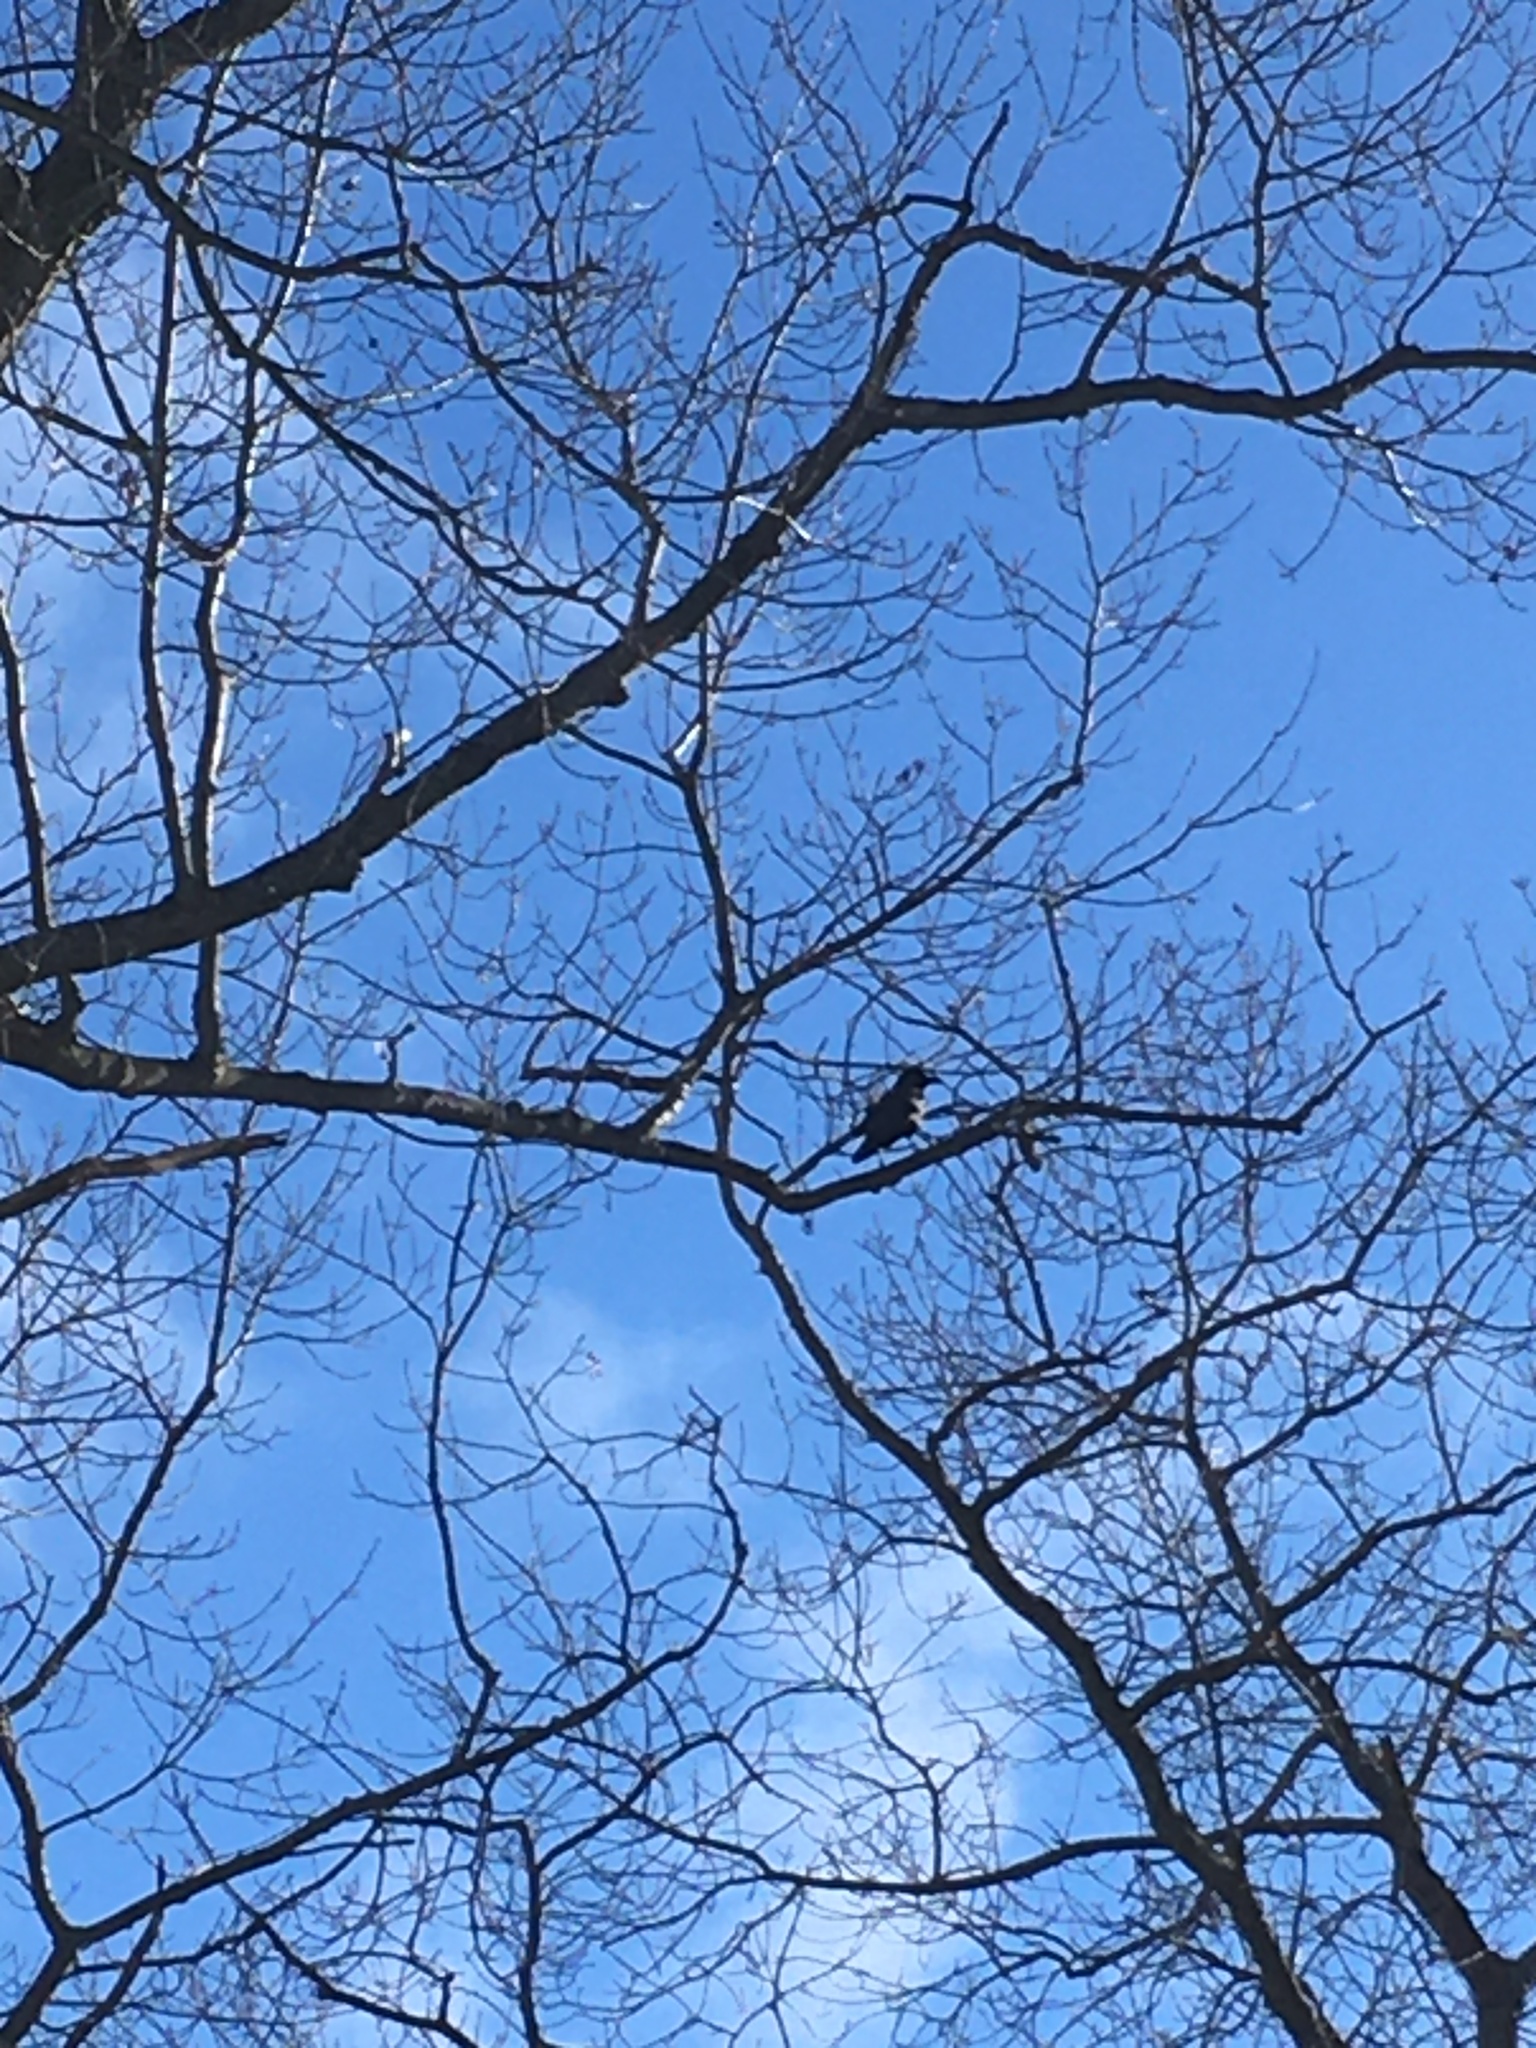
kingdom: Animalia
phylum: Chordata
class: Aves
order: Passeriformes
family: Corvidae
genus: Corvus
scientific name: Corvus brachyrhynchos
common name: American crow
